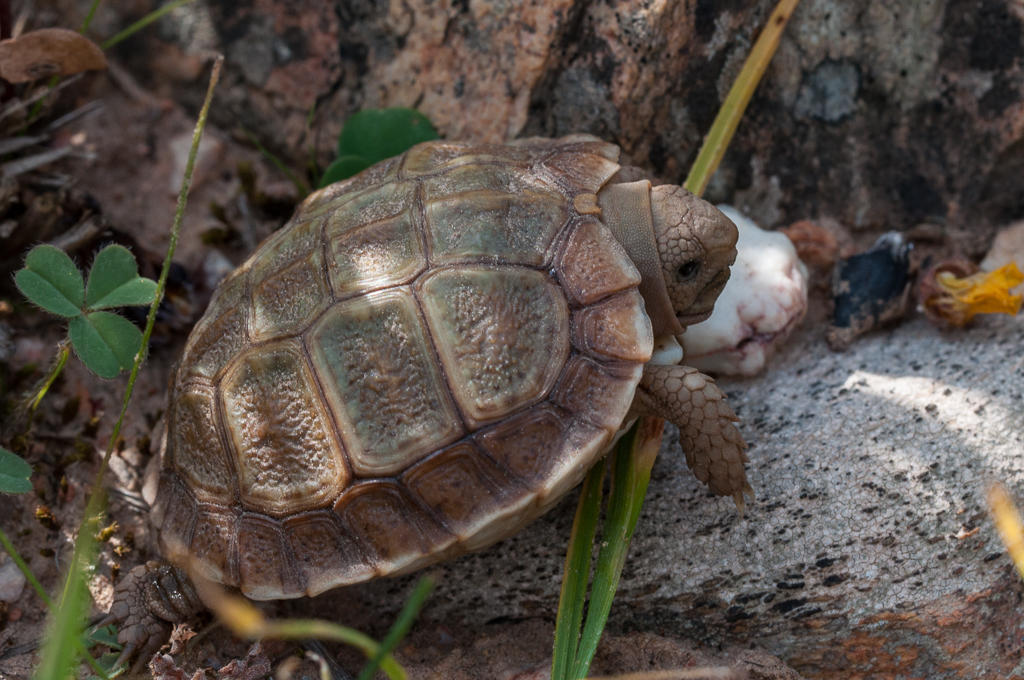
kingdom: Animalia
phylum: Chordata
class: Testudines
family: Testudinidae
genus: Homopus
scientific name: Homopus areolatus
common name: Parrot-beaked tortoise
